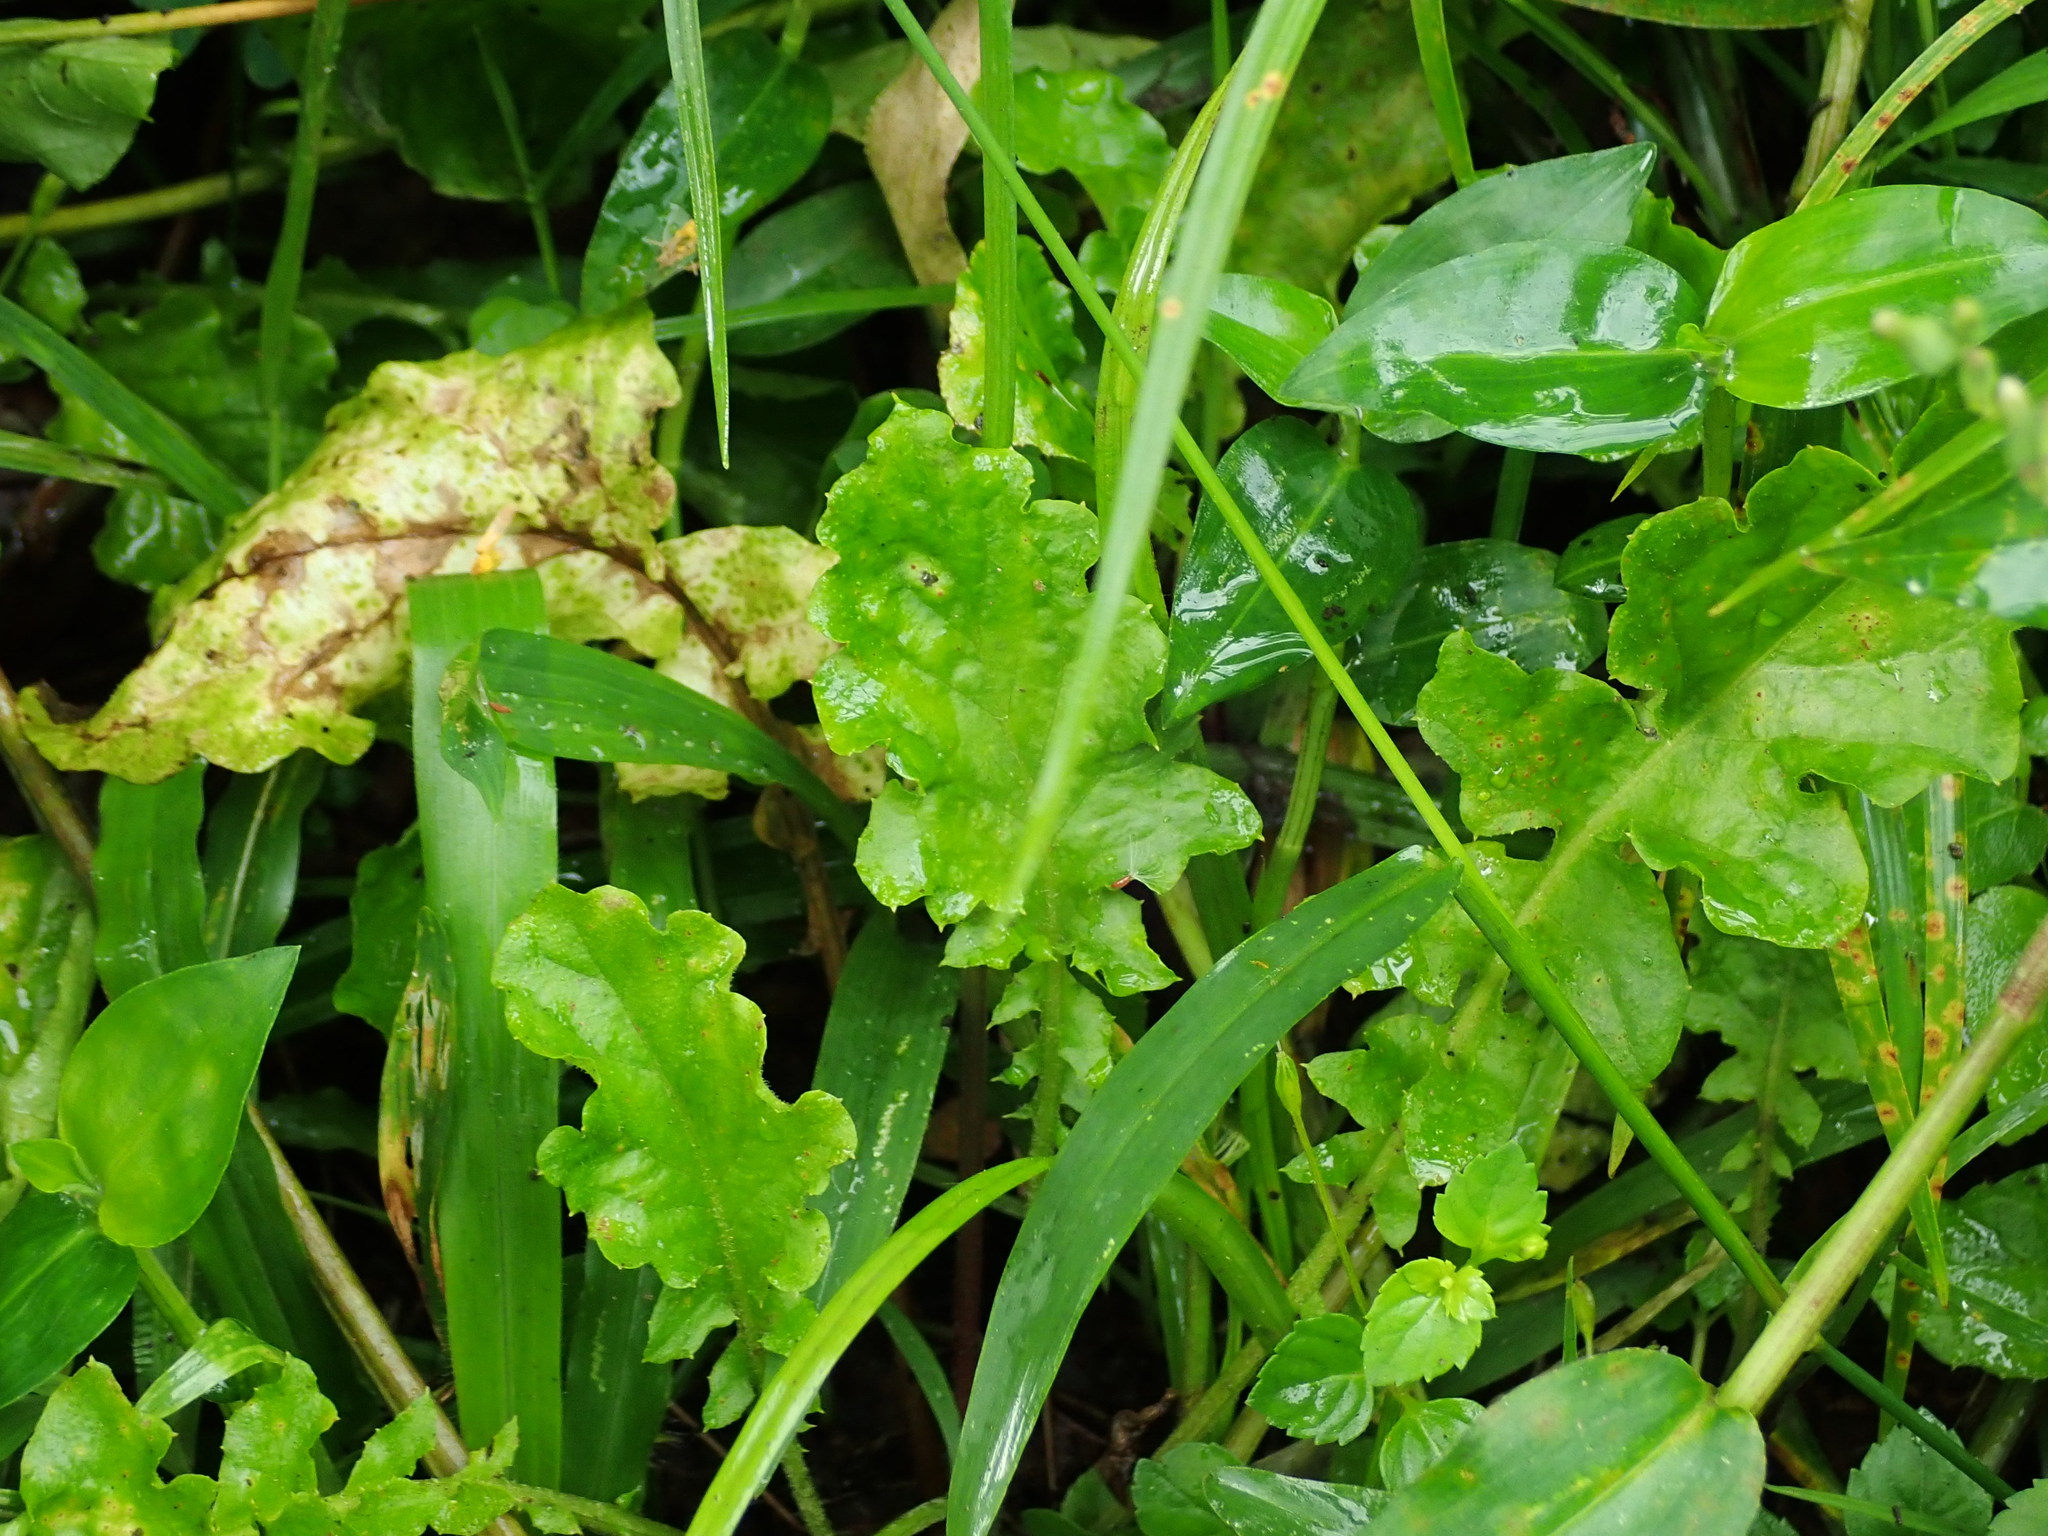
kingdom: Plantae
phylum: Tracheophyta
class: Magnoliopsida
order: Asterales
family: Asteraceae
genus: Youngia
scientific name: Youngia japonica
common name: Oriental false hawksbeard
